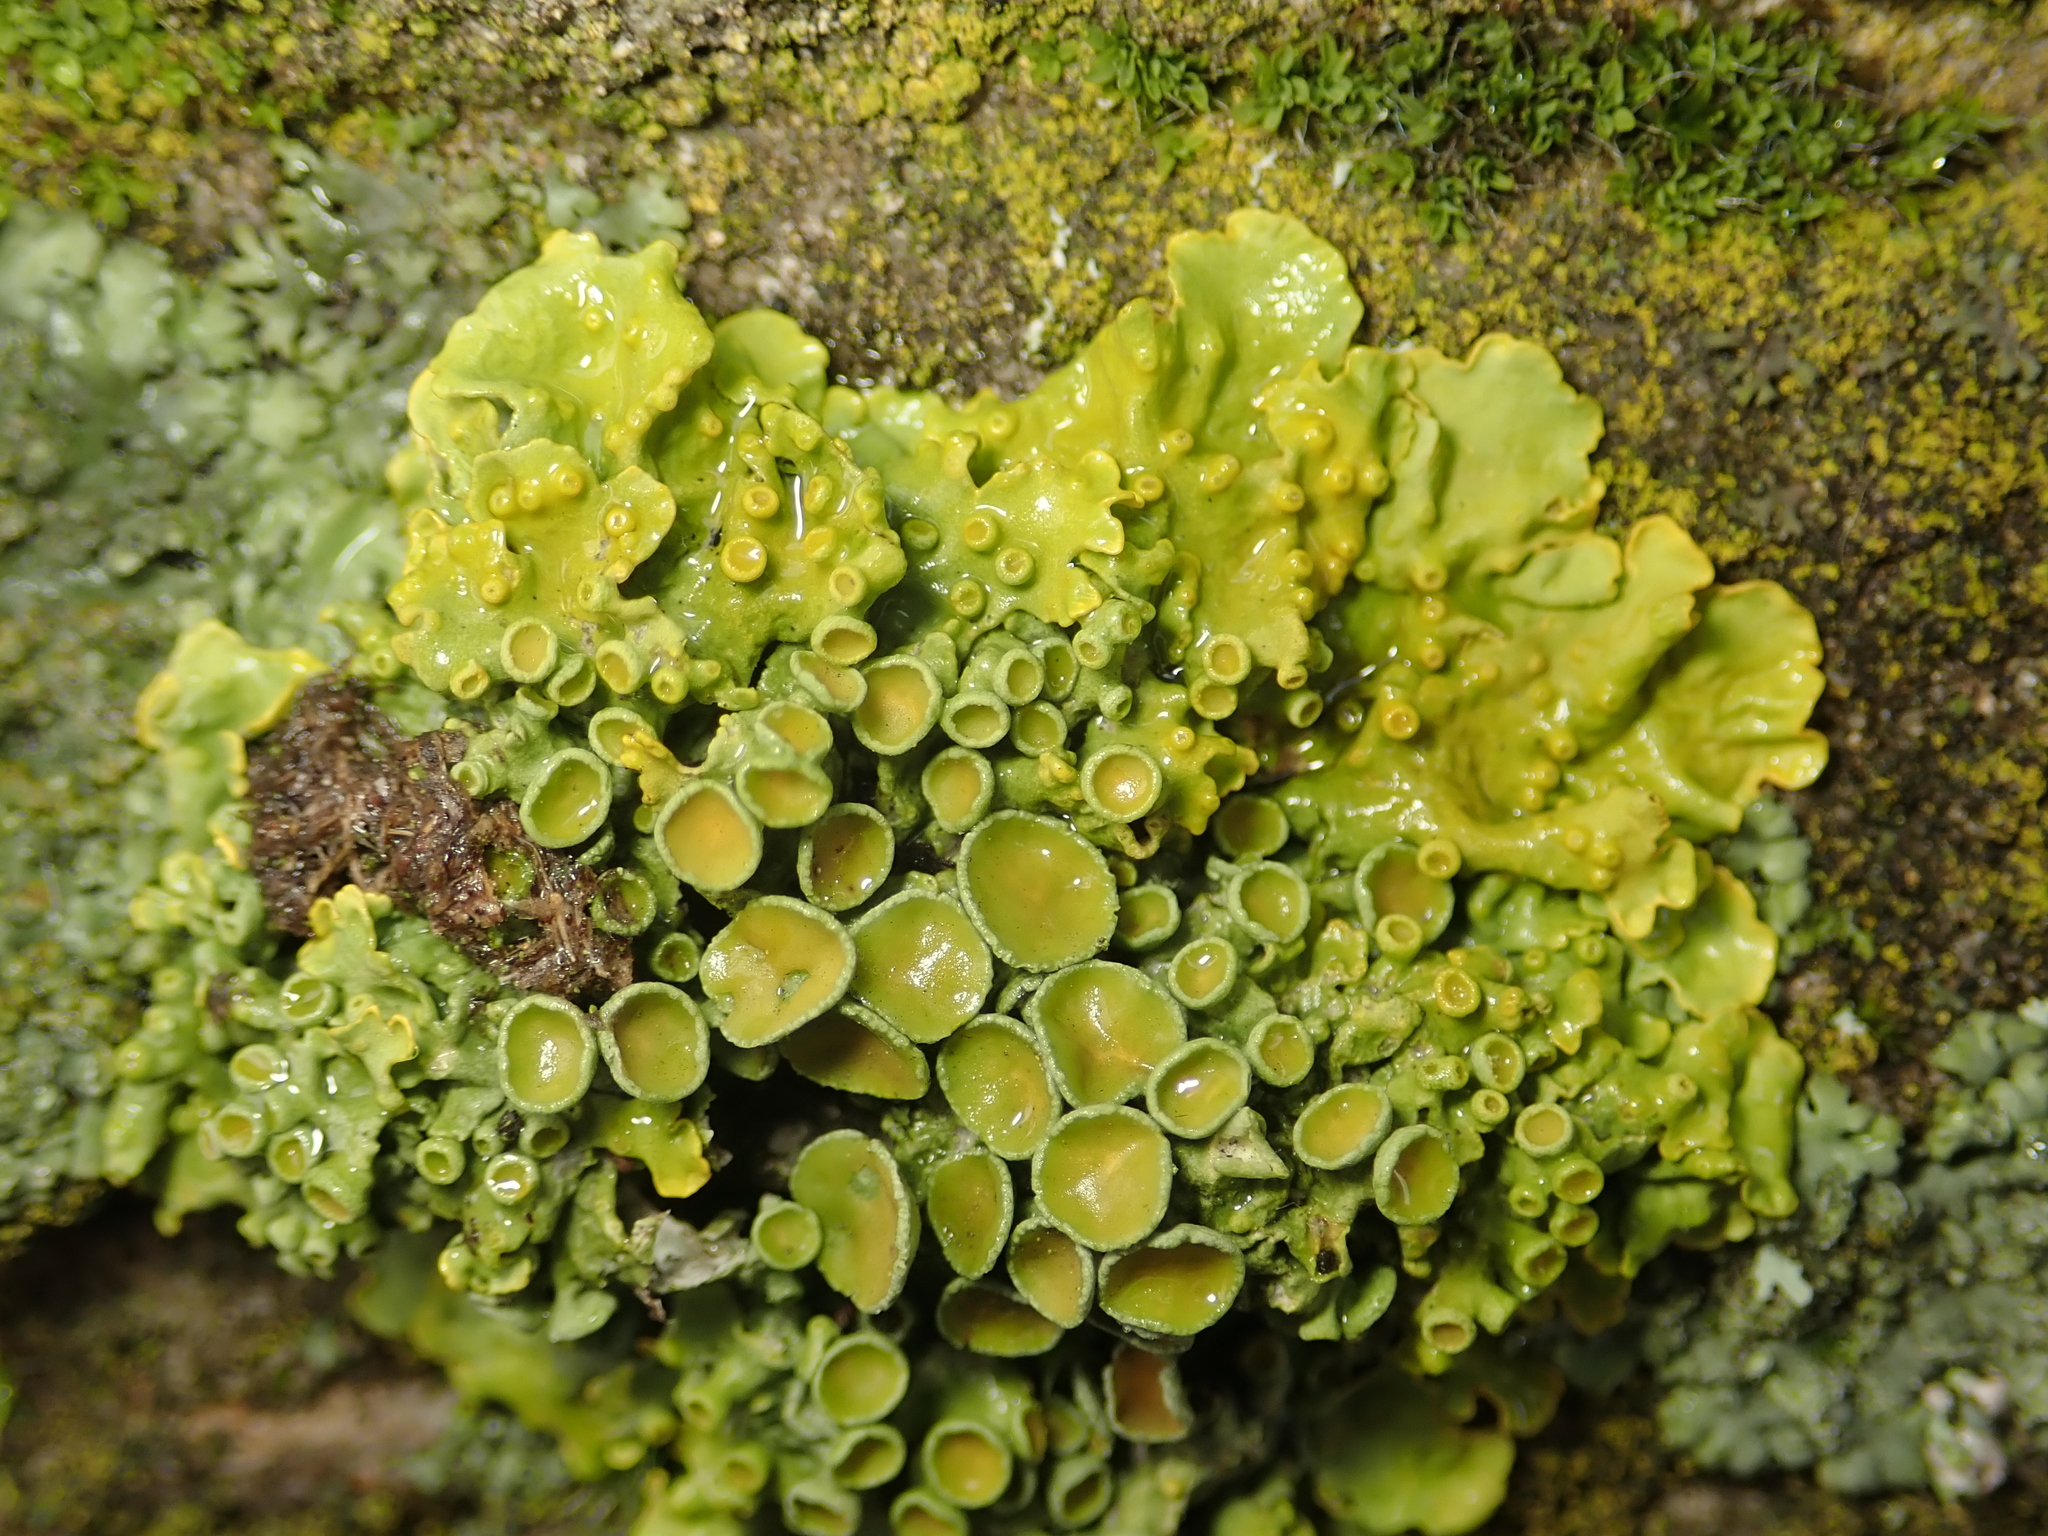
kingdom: Fungi
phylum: Ascomycota
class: Lecanoromycetes
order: Teloschistales
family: Teloschistaceae
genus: Xanthoria
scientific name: Xanthoria parietina
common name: Common orange lichen
